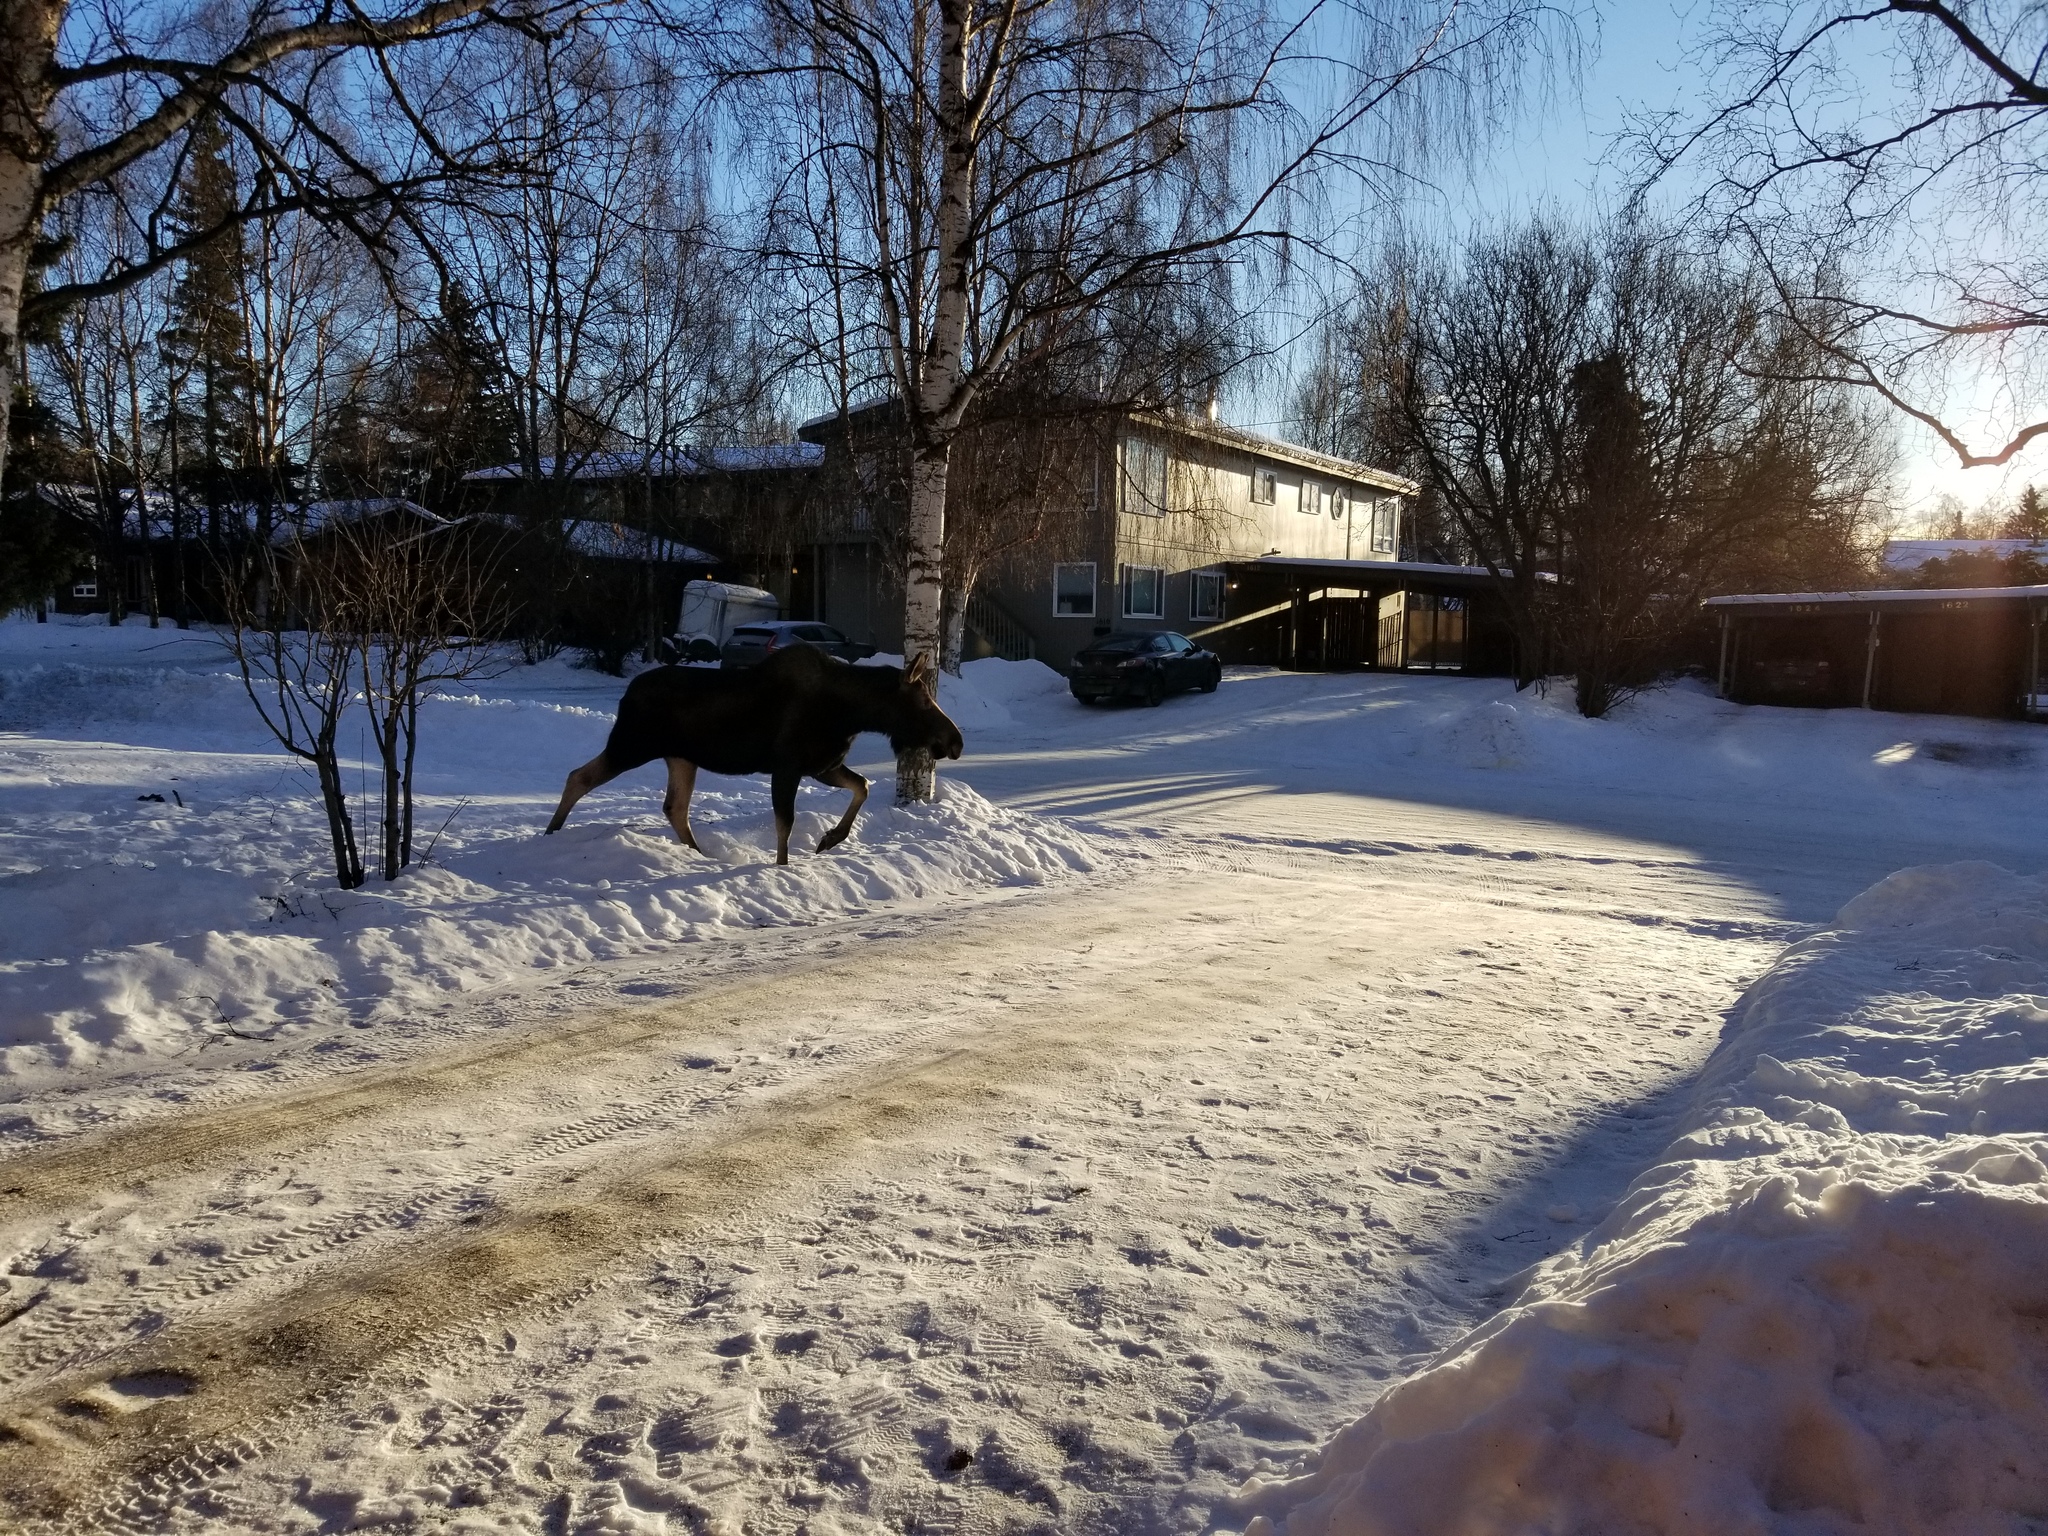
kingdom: Animalia
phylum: Chordata
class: Mammalia
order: Artiodactyla
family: Cervidae
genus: Alces
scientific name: Alces alces
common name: Moose
